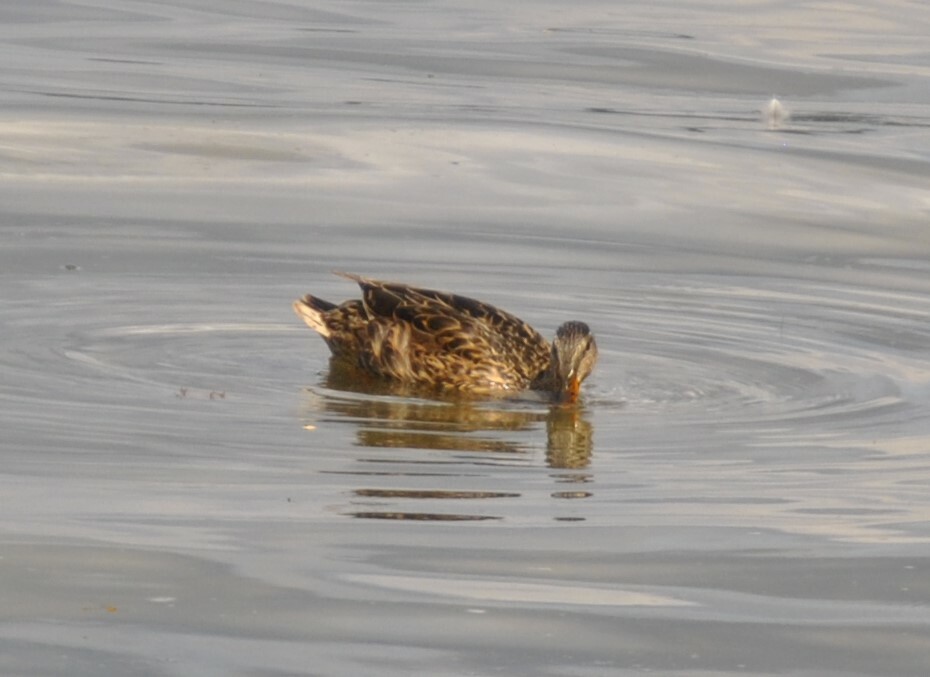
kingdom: Animalia
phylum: Chordata
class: Aves
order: Anseriformes
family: Anatidae
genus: Anas
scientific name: Anas platyrhynchos
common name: Mallard
